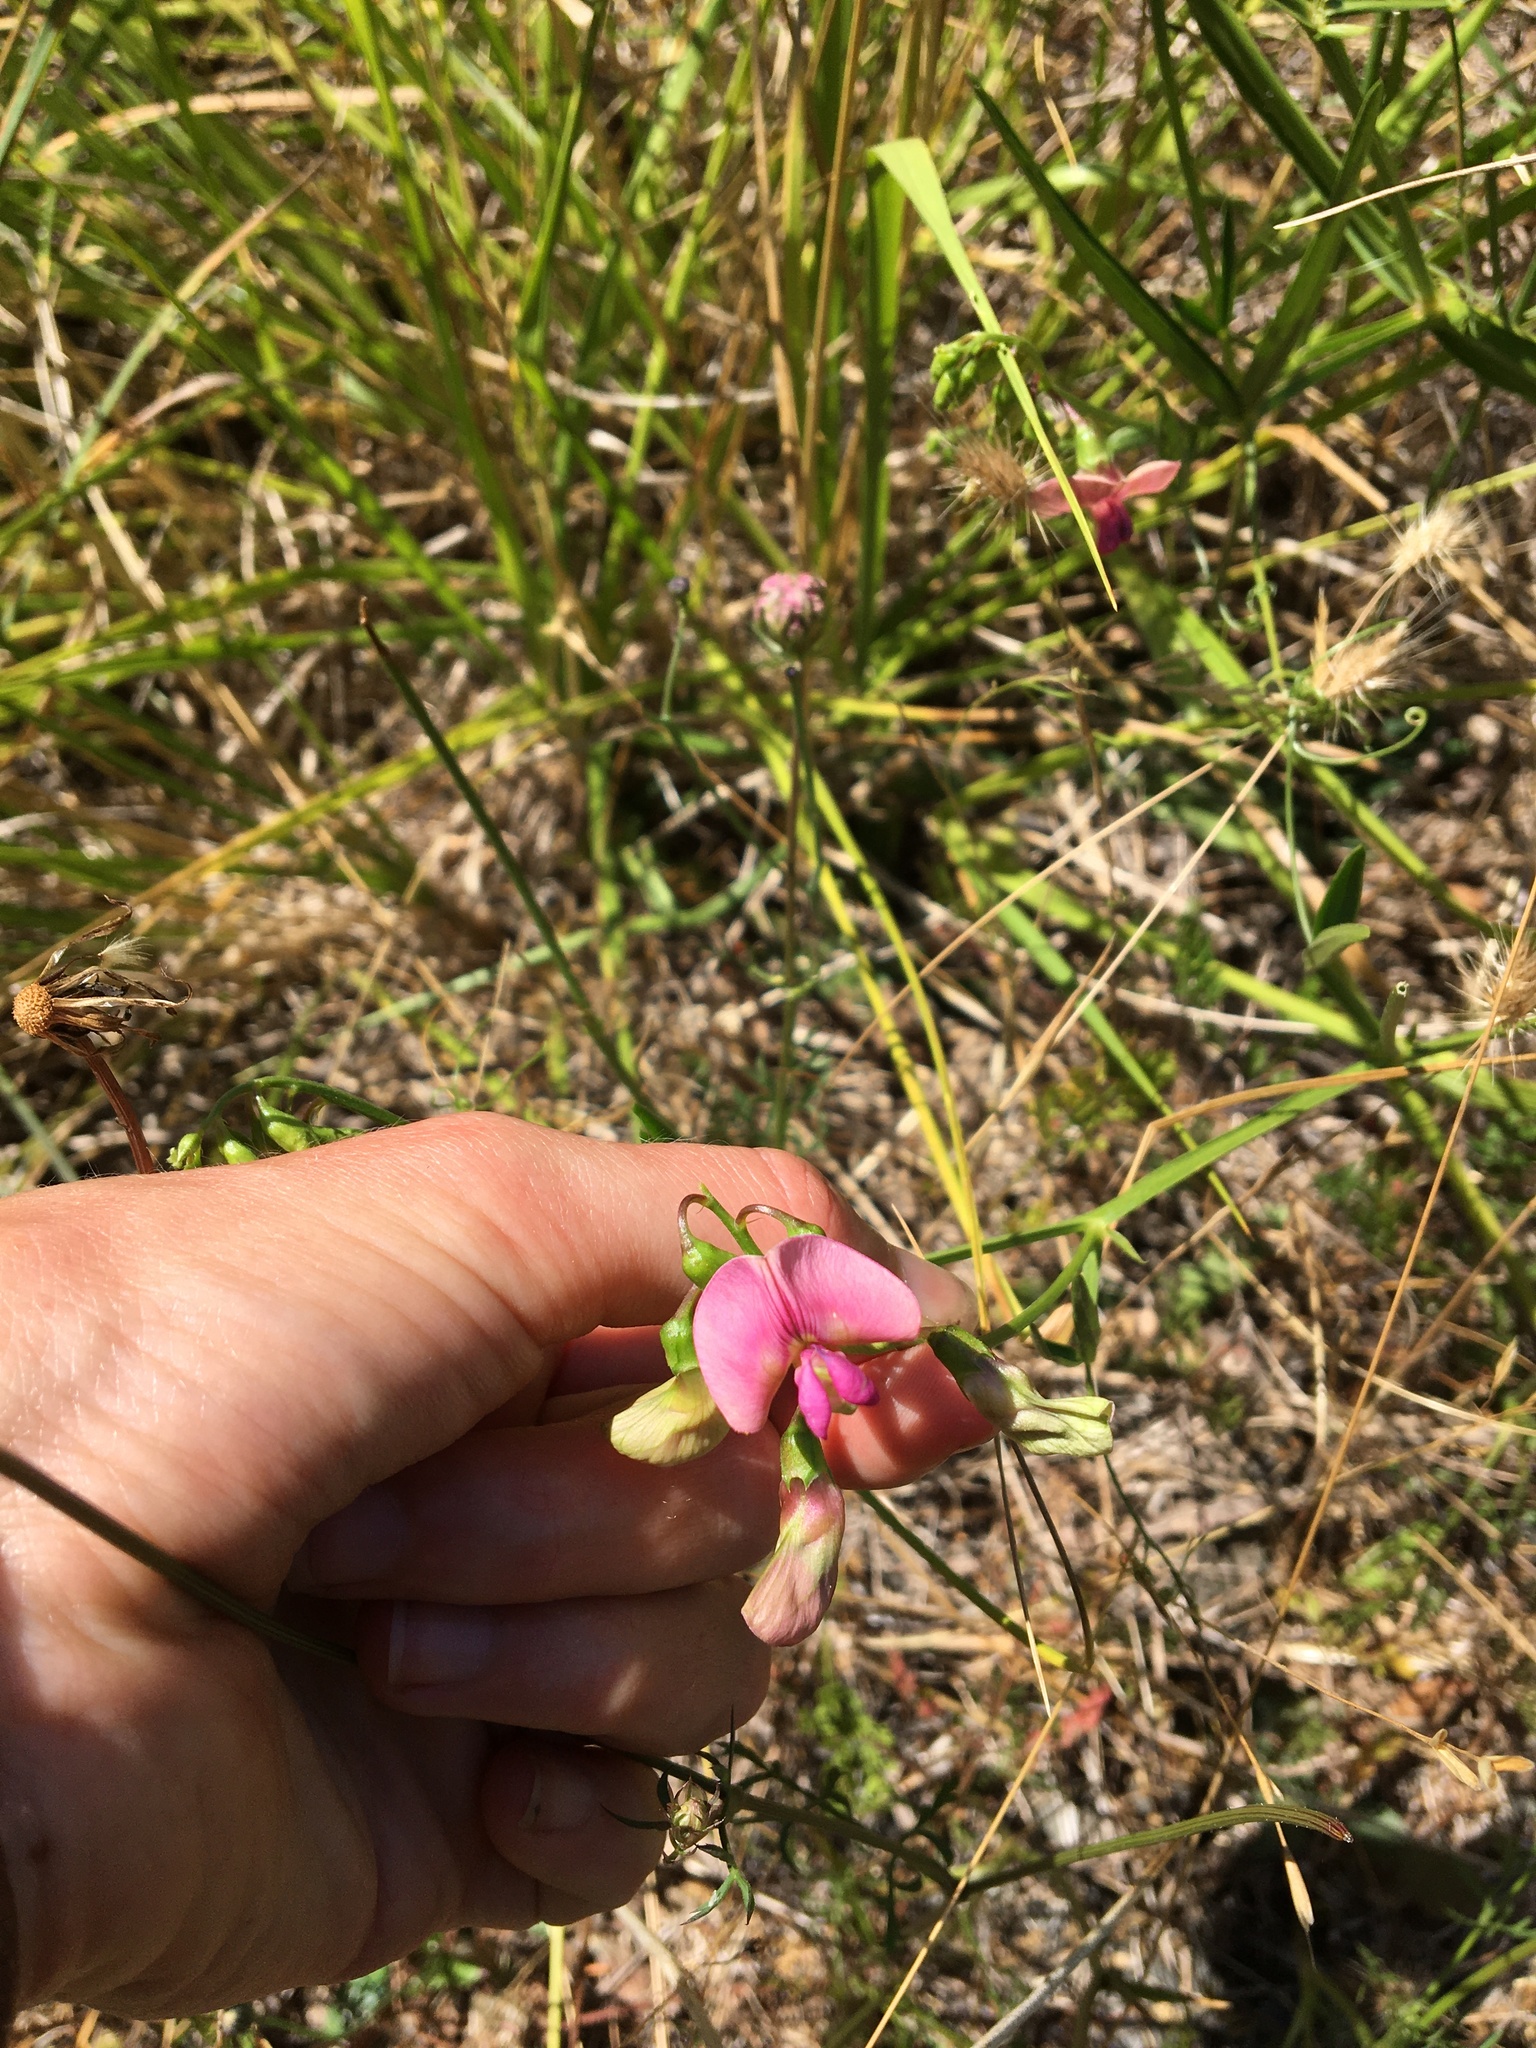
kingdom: Plantae
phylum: Tracheophyta
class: Magnoliopsida
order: Fabales
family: Fabaceae
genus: Lathyrus
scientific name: Lathyrus sylvestris
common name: Flat pea
